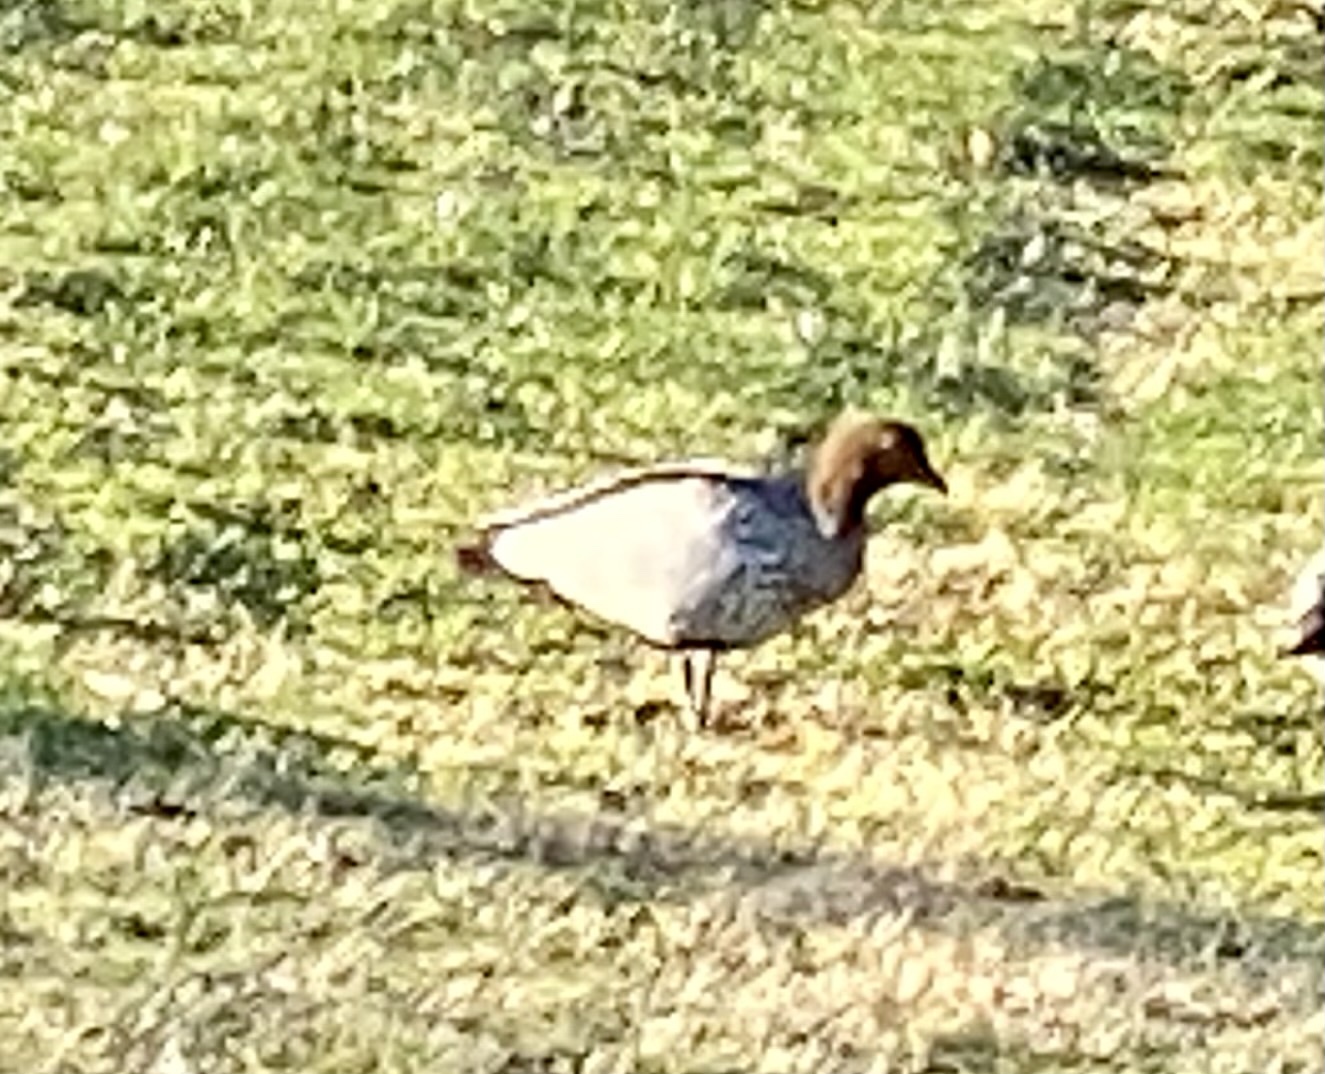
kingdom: Animalia
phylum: Chordata
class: Aves
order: Anseriformes
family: Anatidae
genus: Chenonetta
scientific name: Chenonetta jubata
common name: Maned duck
